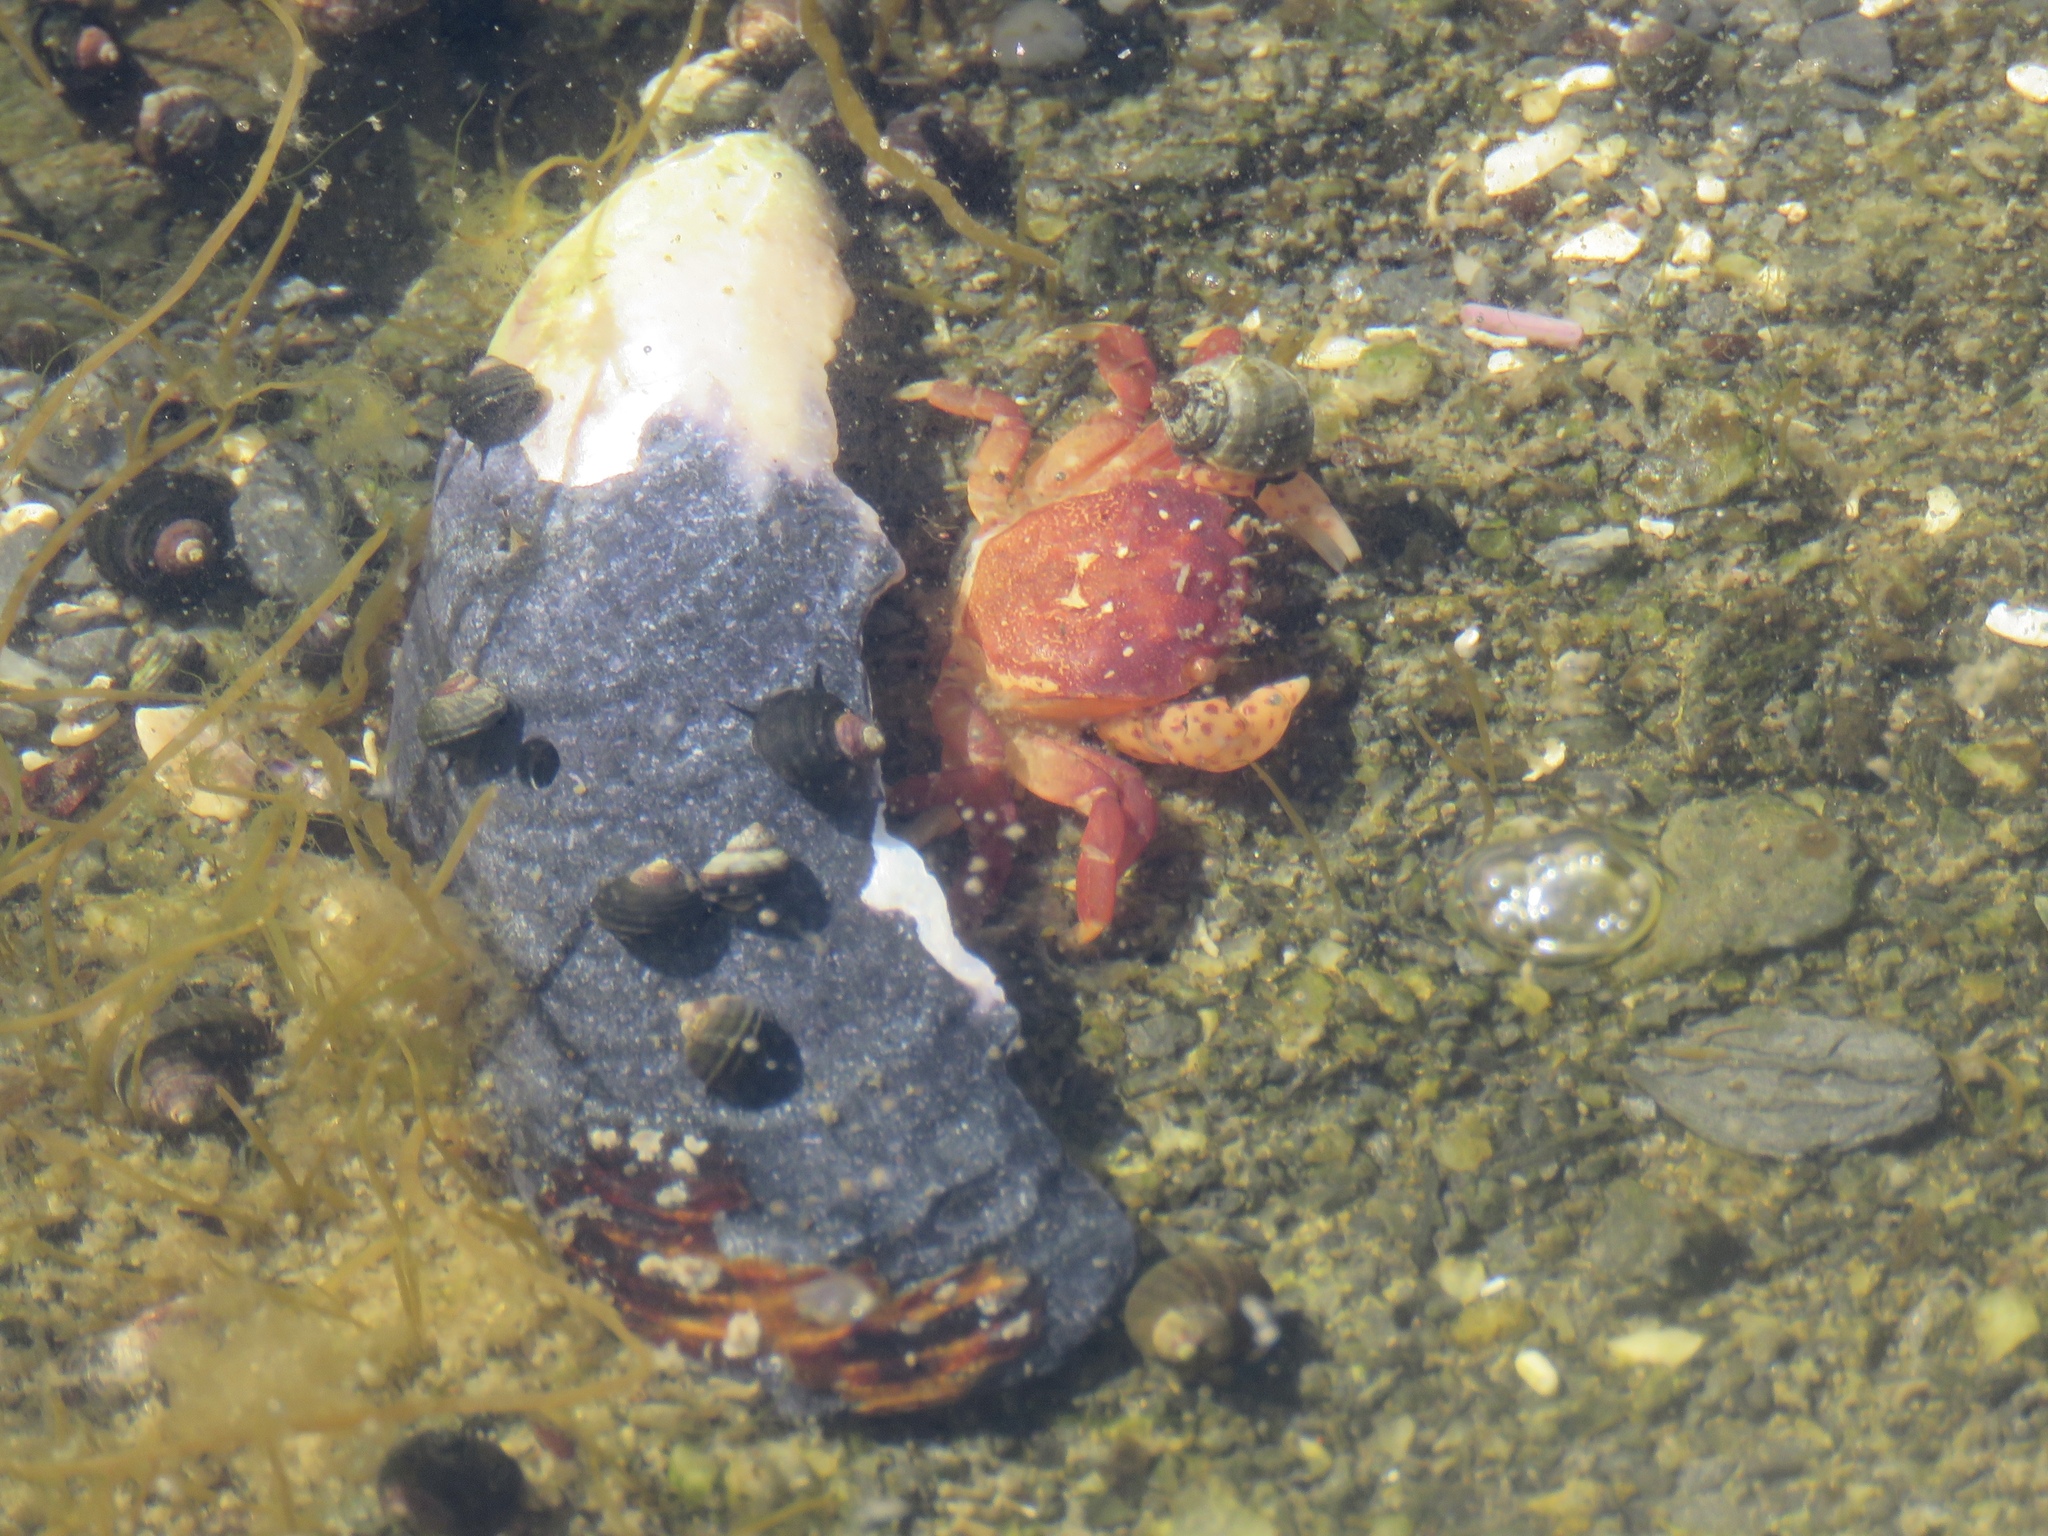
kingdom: Animalia
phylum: Arthropoda
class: Malacostraca
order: Decapoda
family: Varunidae
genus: Hemigrapsus
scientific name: Hemigrapsus nudus
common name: Purple shore crab
